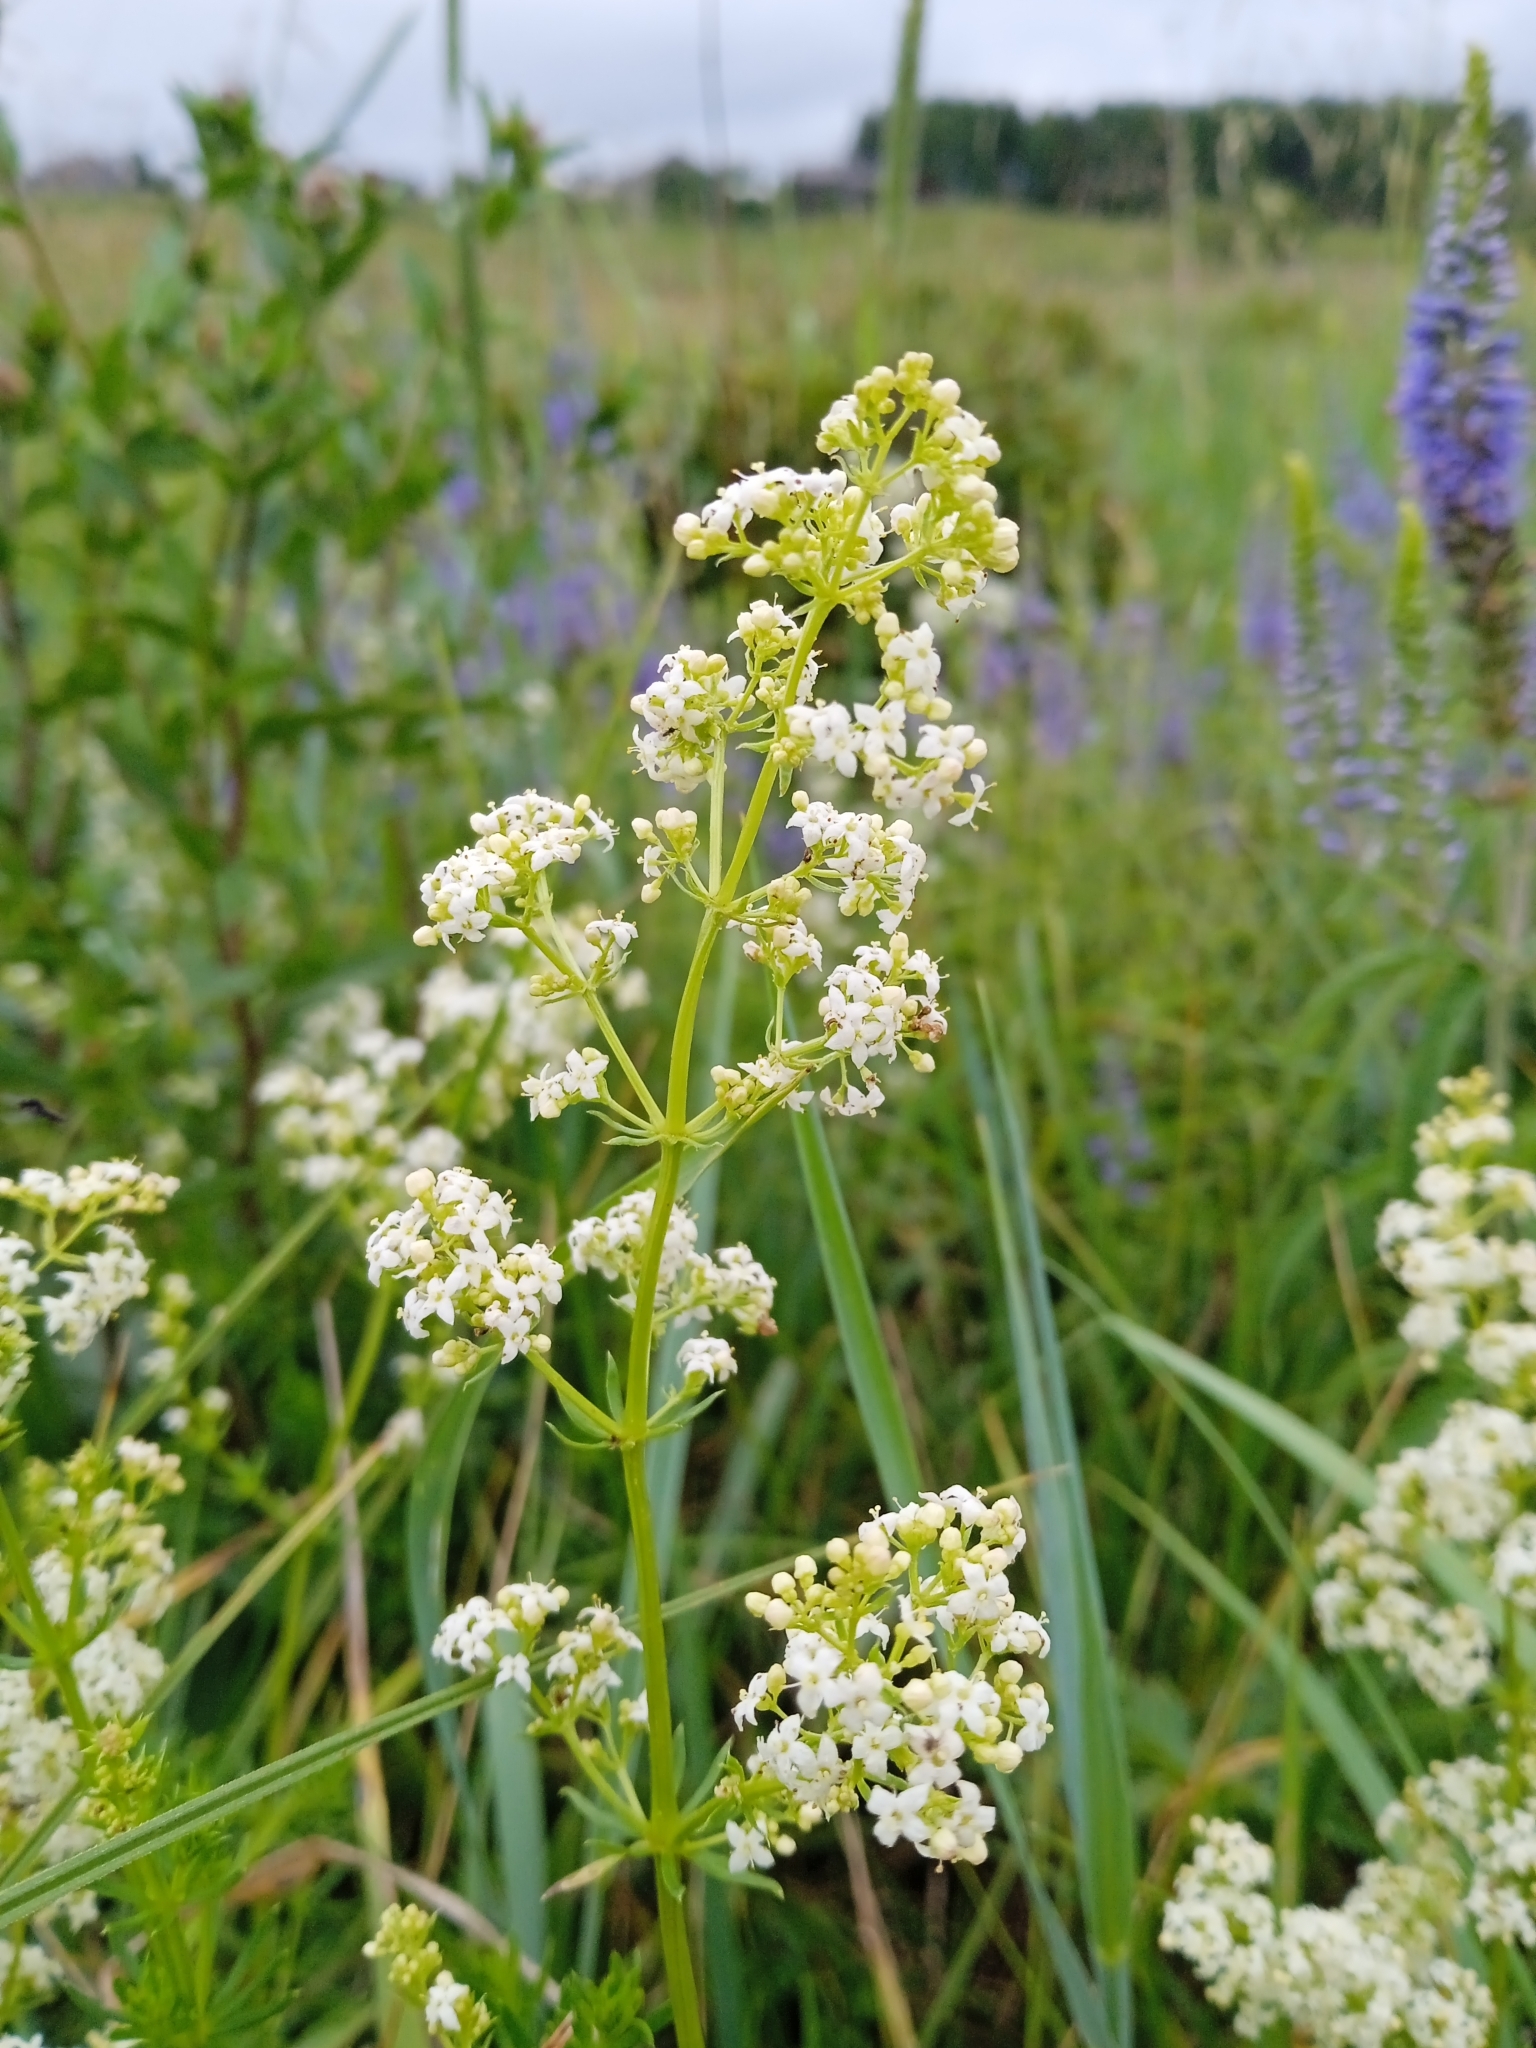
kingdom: Plantae
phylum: Tracheophyta
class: Magnoliopsida
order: Gentianales
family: Rubiaceae
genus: Galium
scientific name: Galium mollugo
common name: Hedge bedstraw
